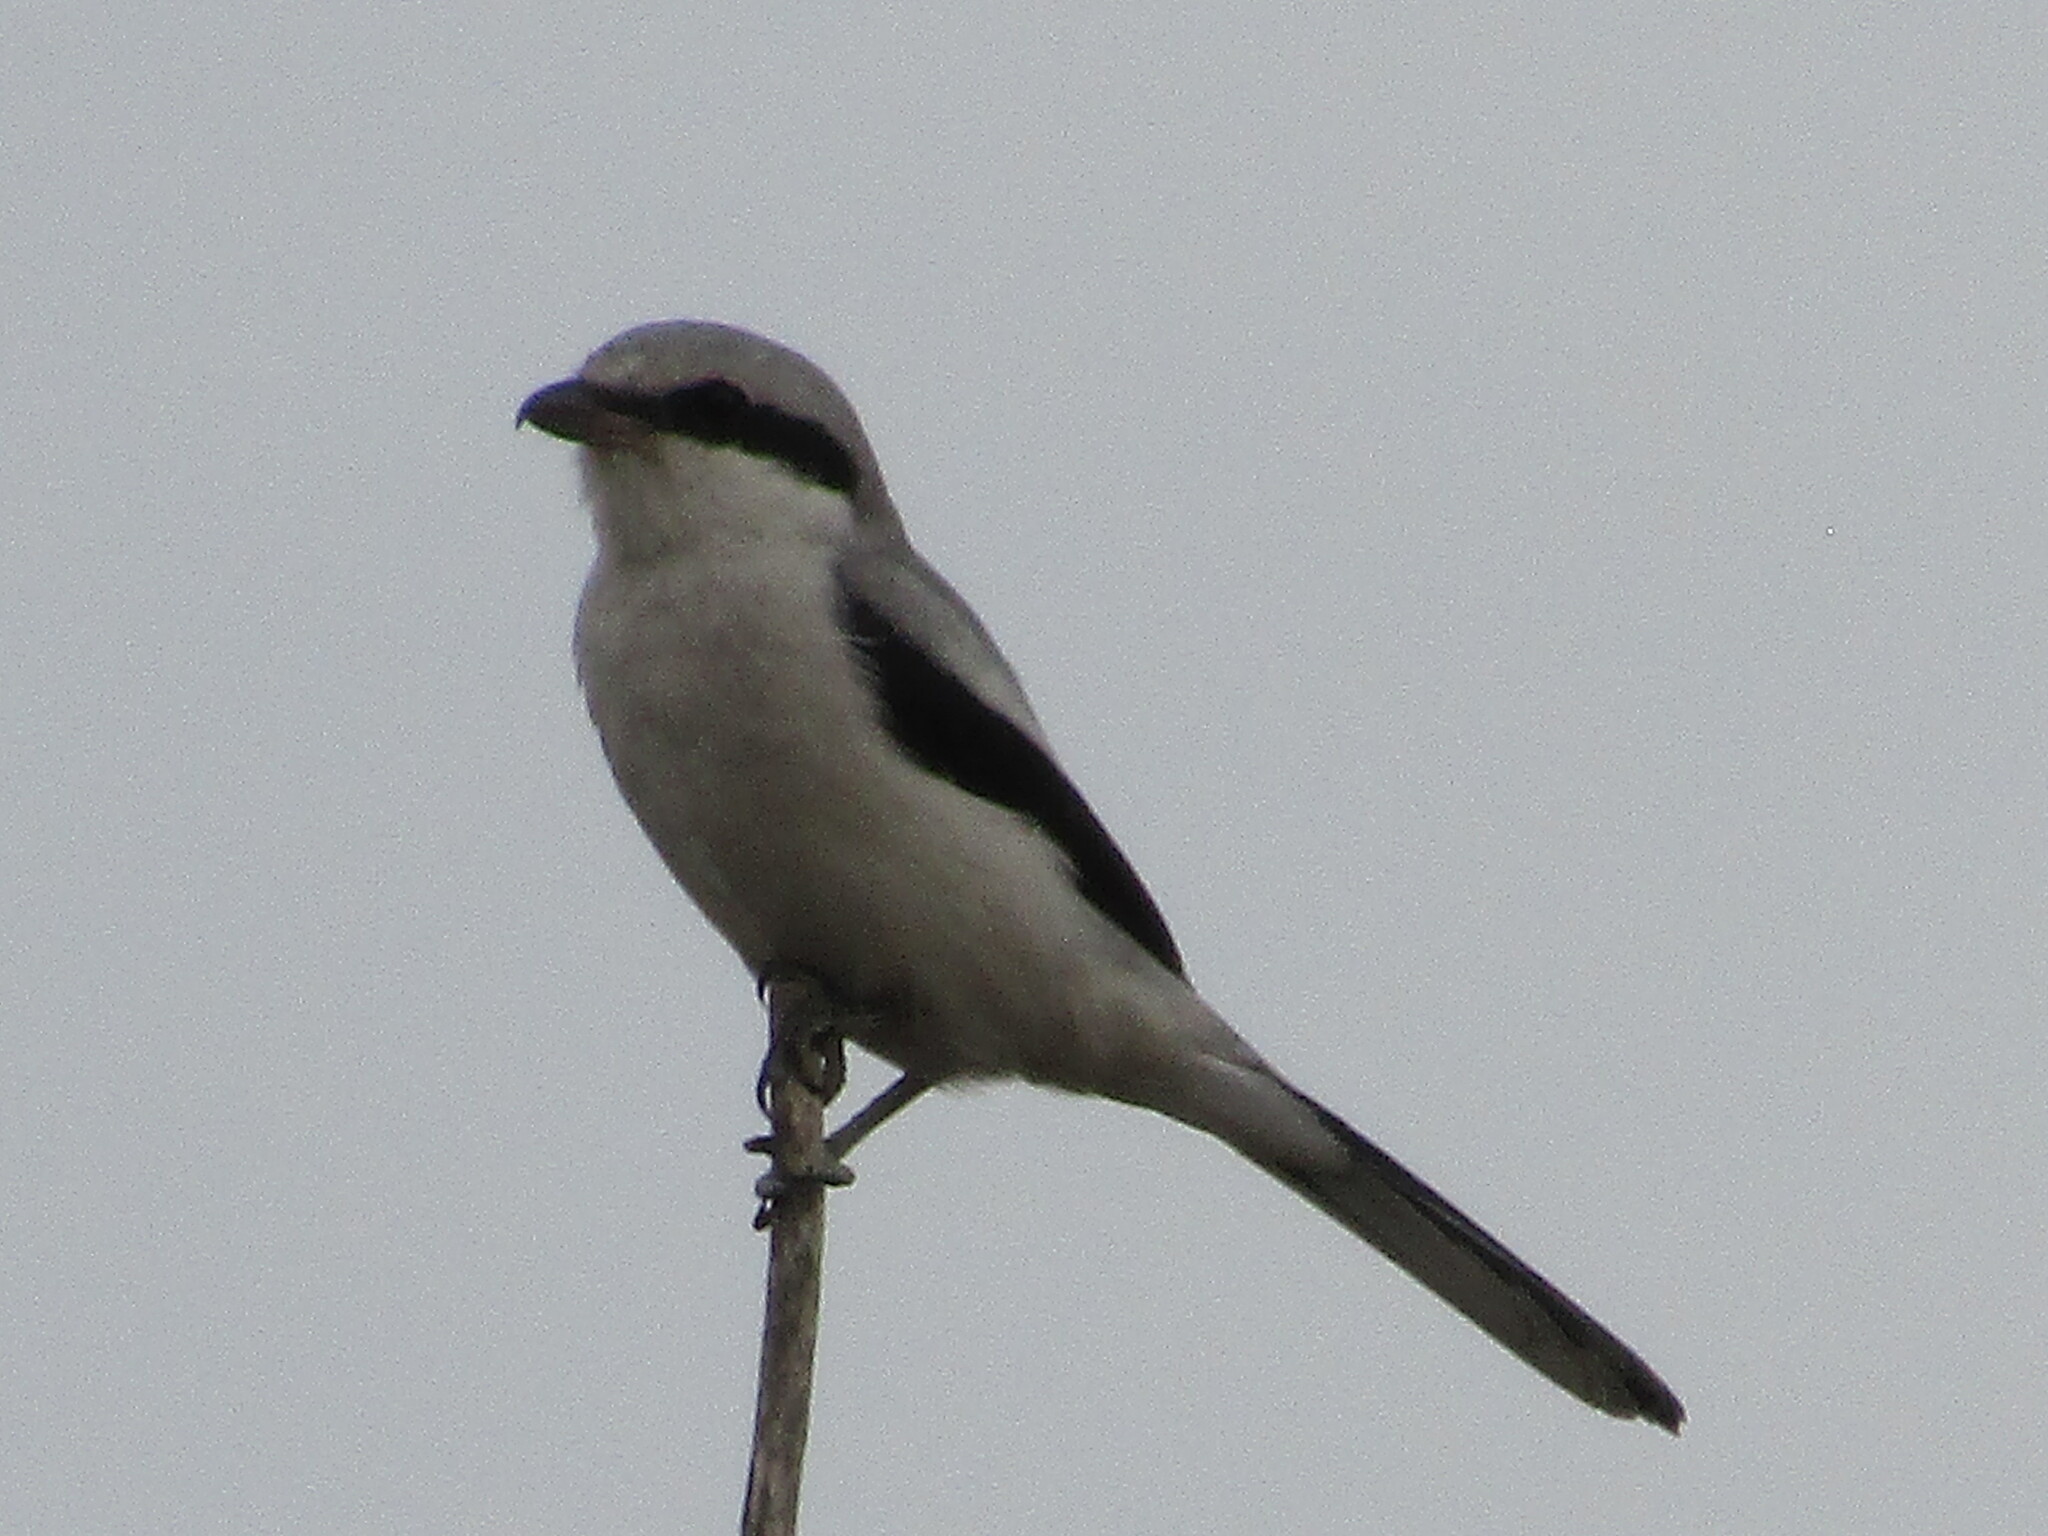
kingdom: Animalia
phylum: Chordata
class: Aves
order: Passeriformes
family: Laniidae
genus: Lanius
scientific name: Lanius excubitor
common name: Great grey shrike
